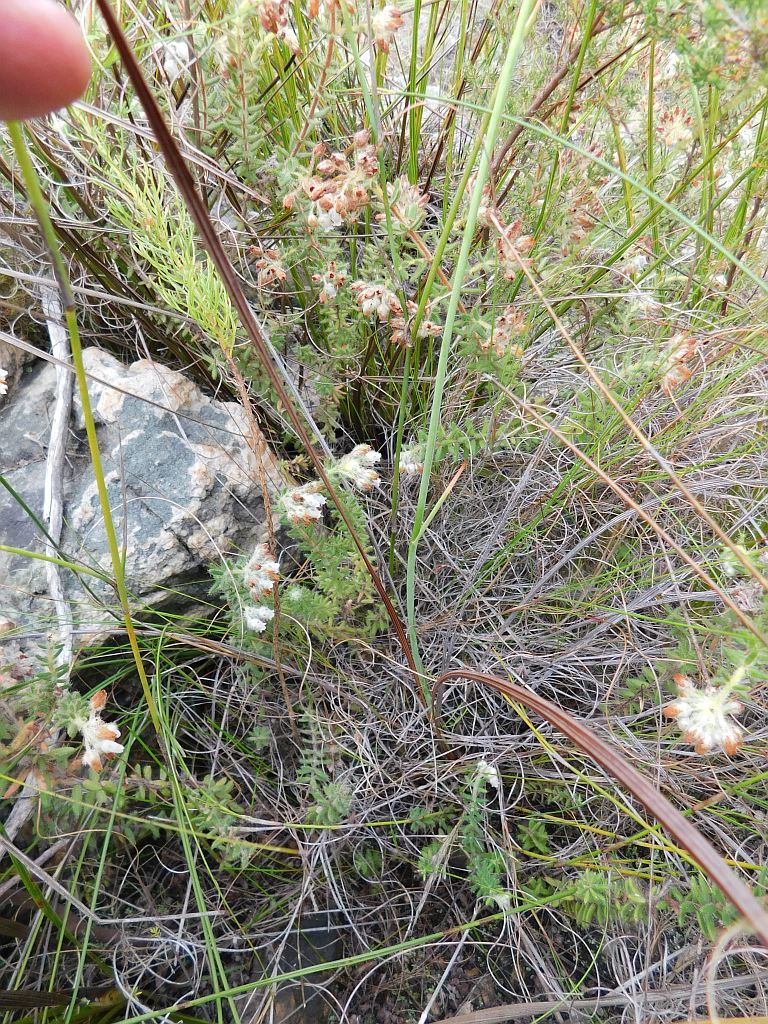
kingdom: Plantae
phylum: Tracheophyta
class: Liliopsida
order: Asparagales
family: Iridaceae
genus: Tritoniopsis
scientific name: Tritoniopsis lata
